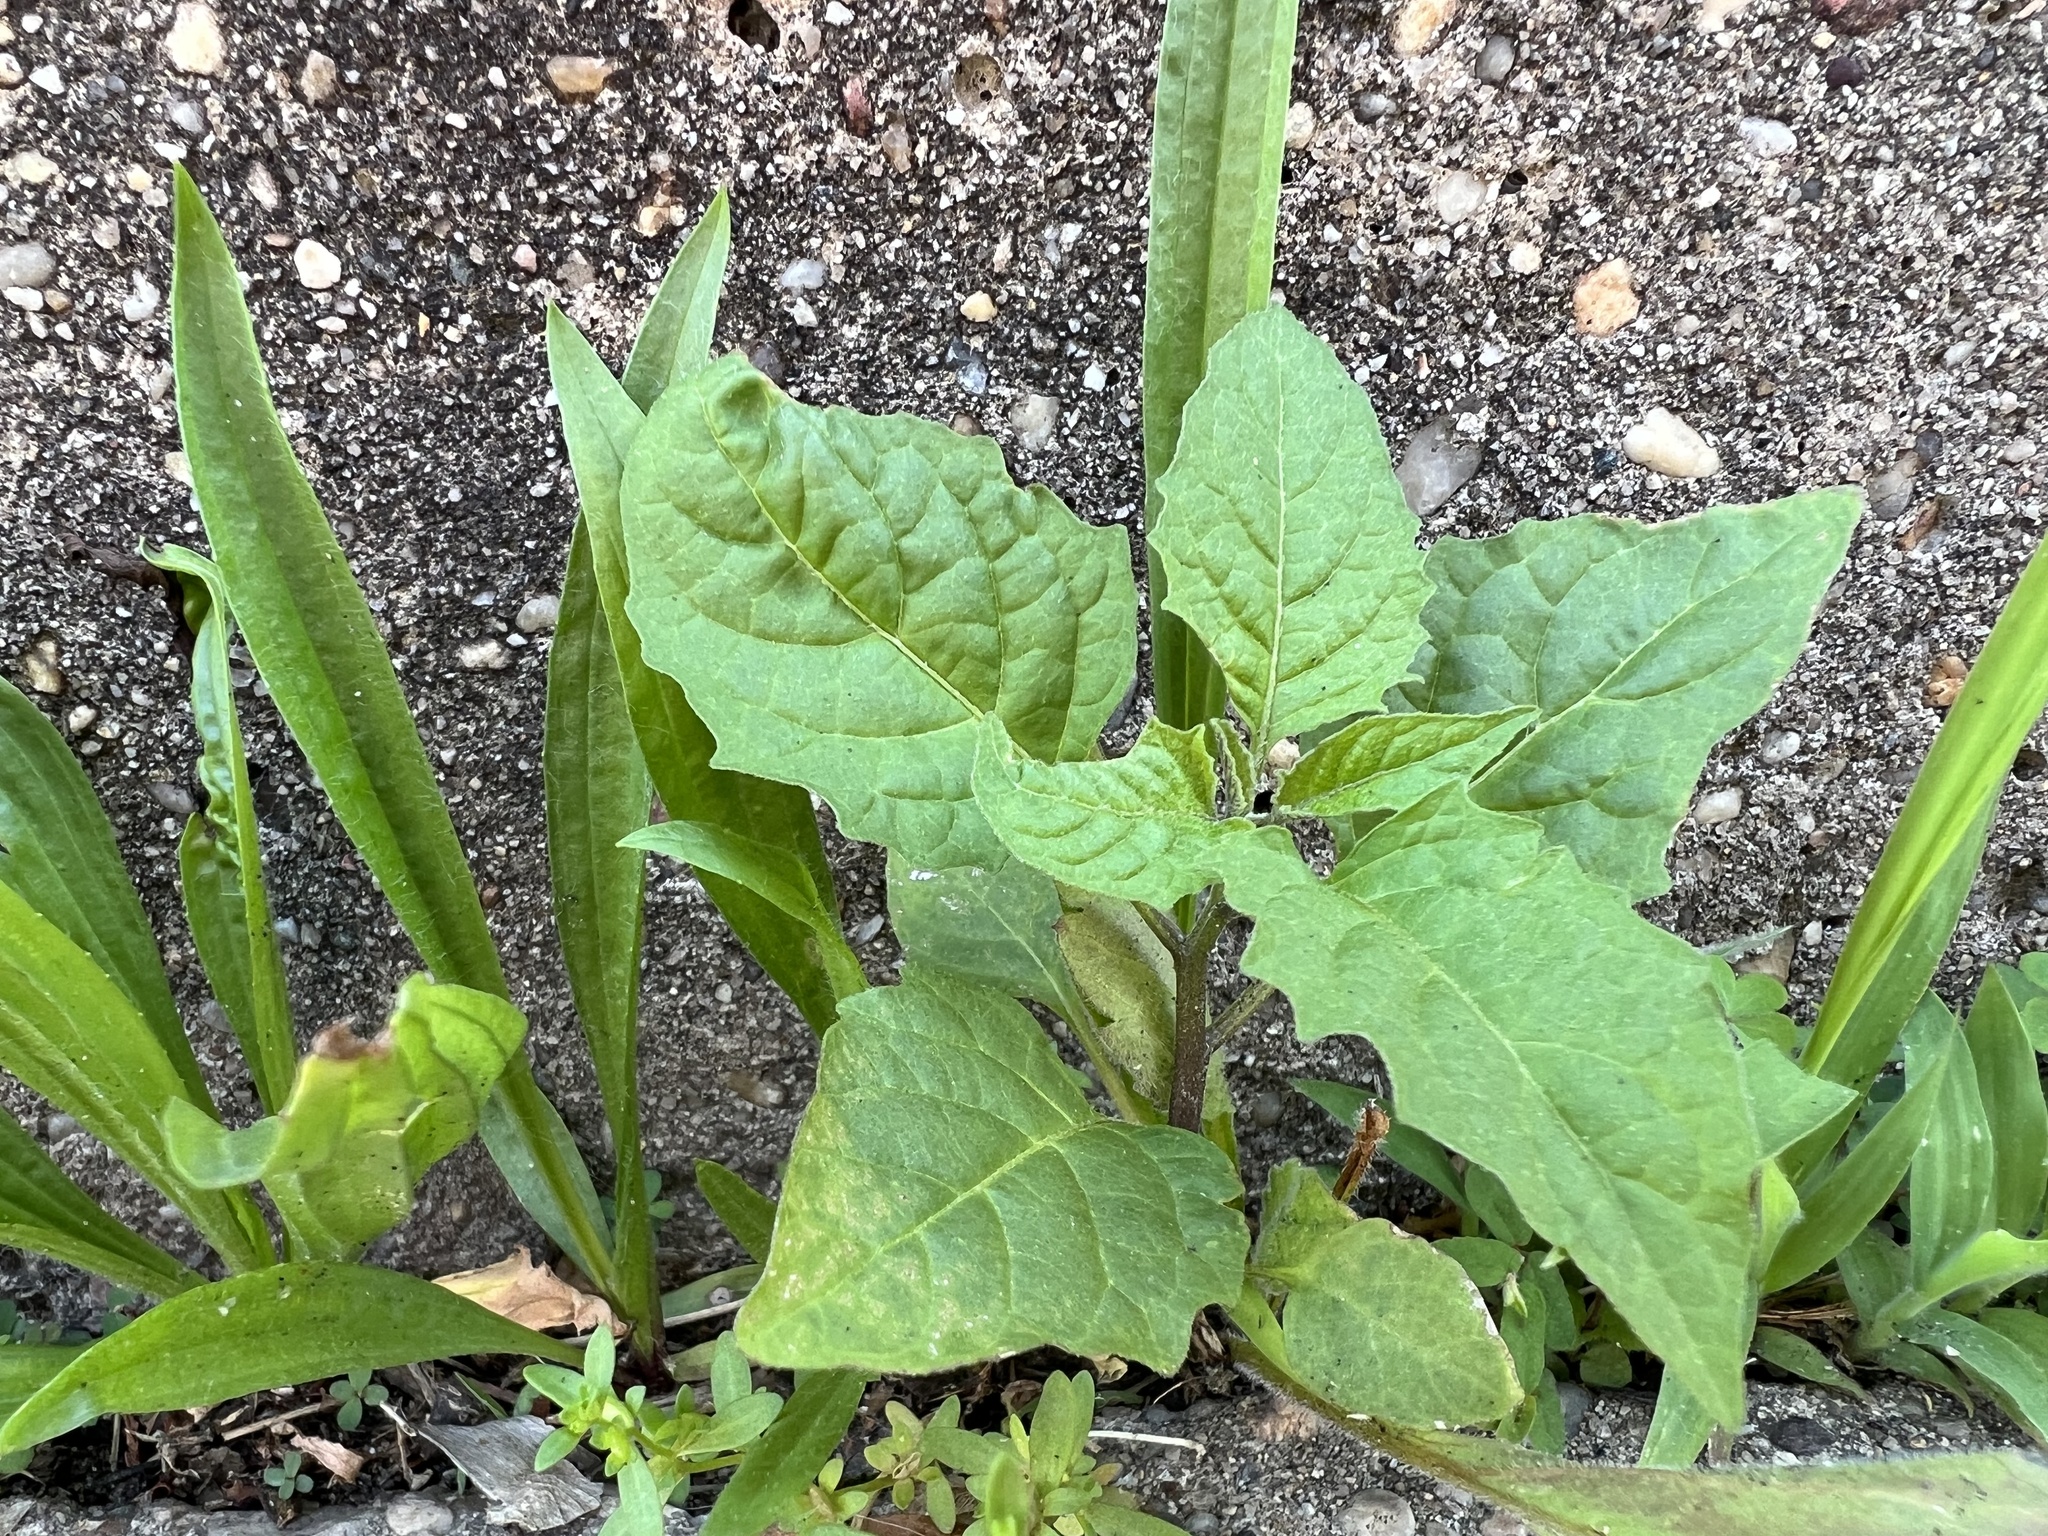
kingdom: Plantae
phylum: Tracheophyta
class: Magnoliopsida
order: Solanales
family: Solanaceae
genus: Solanum
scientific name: Solanum emulans
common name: Eastern black nightshade
